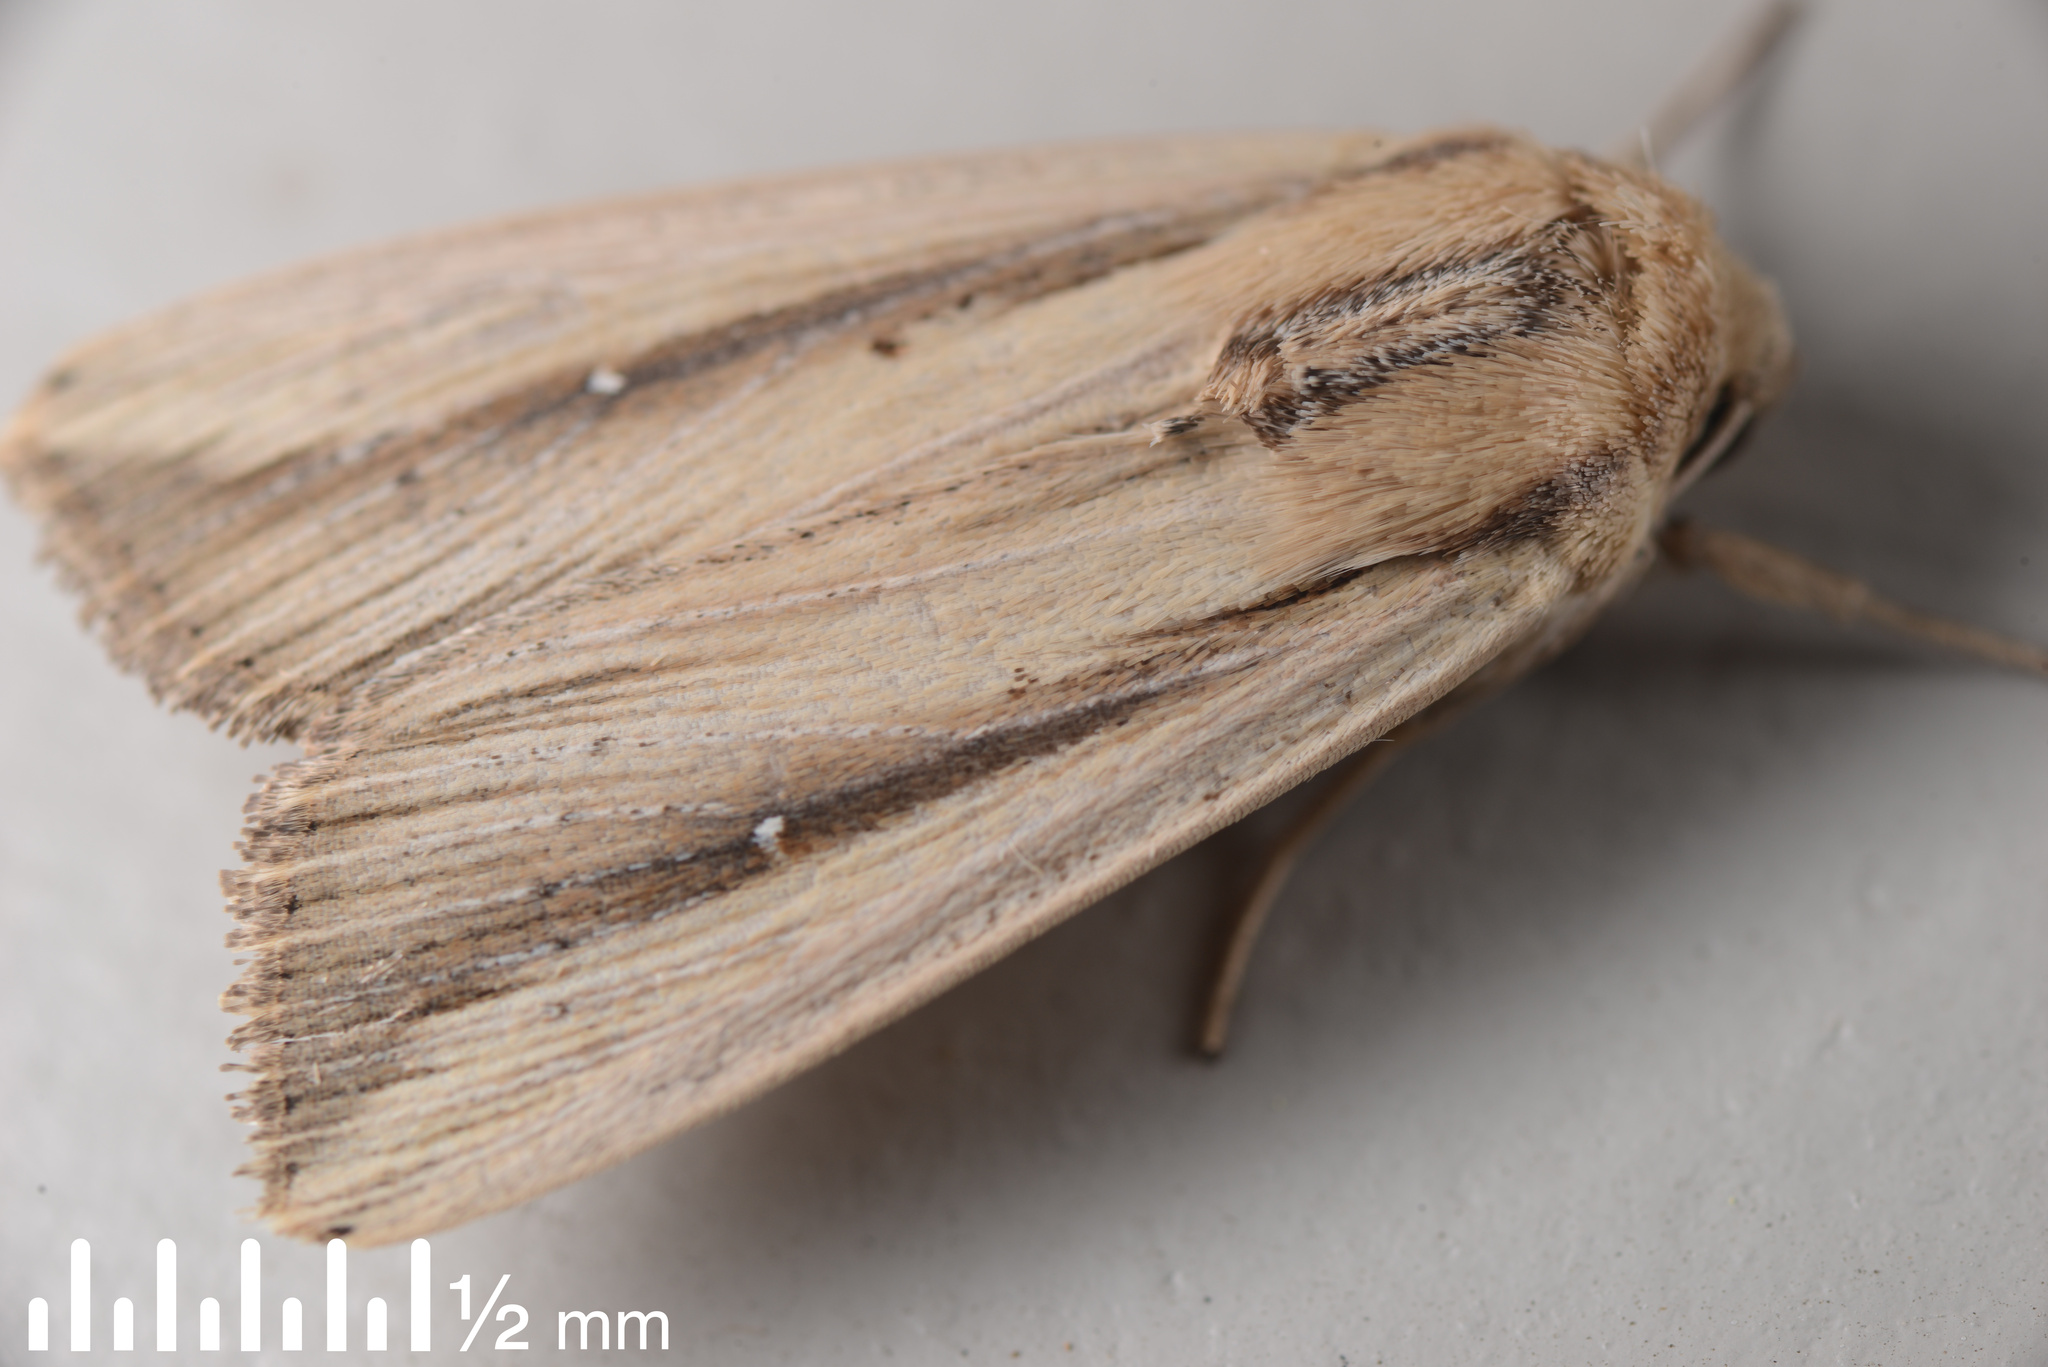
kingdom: Animalia
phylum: Arthropoda
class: Insecta
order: Lepidoptera
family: Noctuidae
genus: Leucania
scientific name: Leucania stenographa
